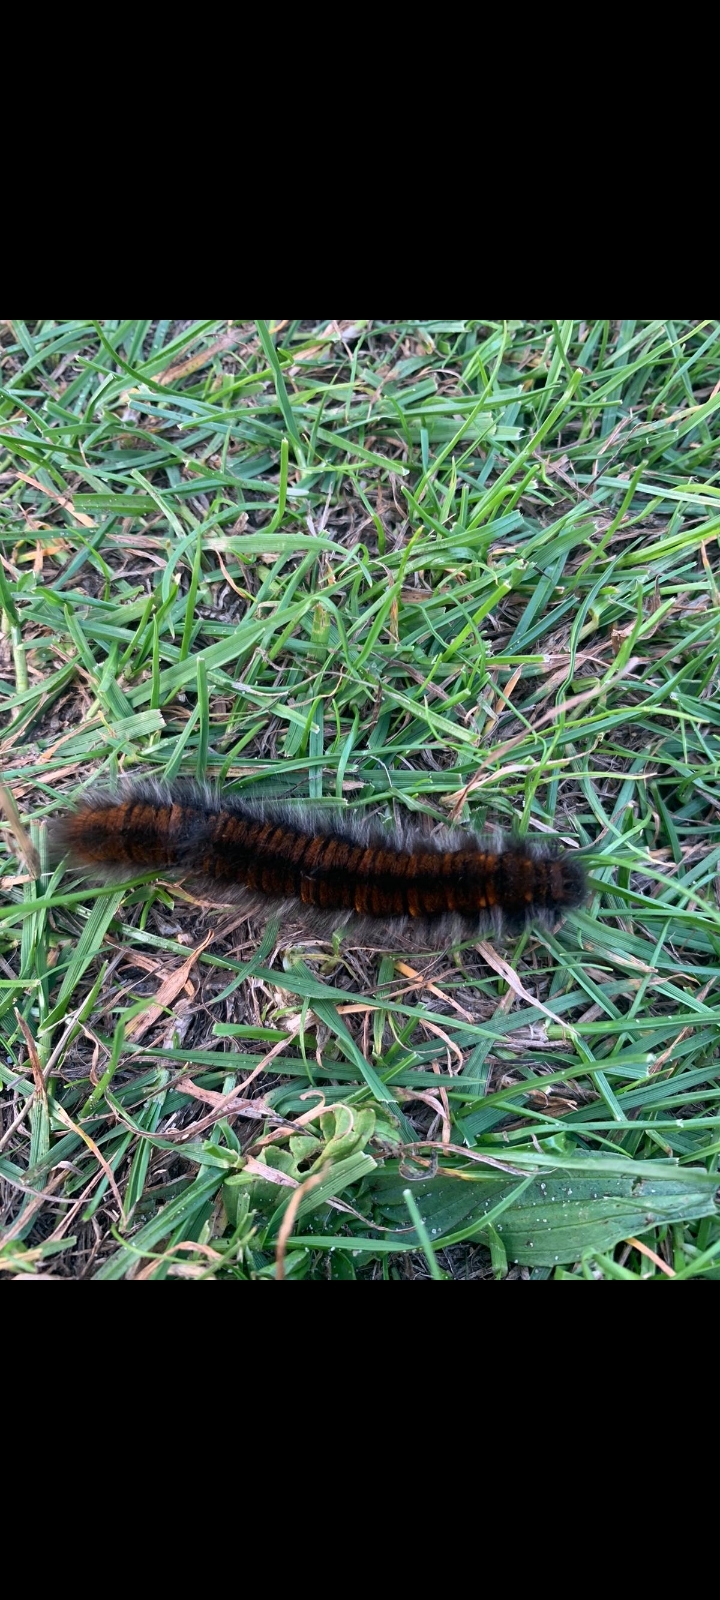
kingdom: Animalia
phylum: Arthropoda
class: Insecta
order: Lepidoptera
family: Lasiocampidae
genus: Macrothylacia
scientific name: Macrothylacia rubi
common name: Fox moth
